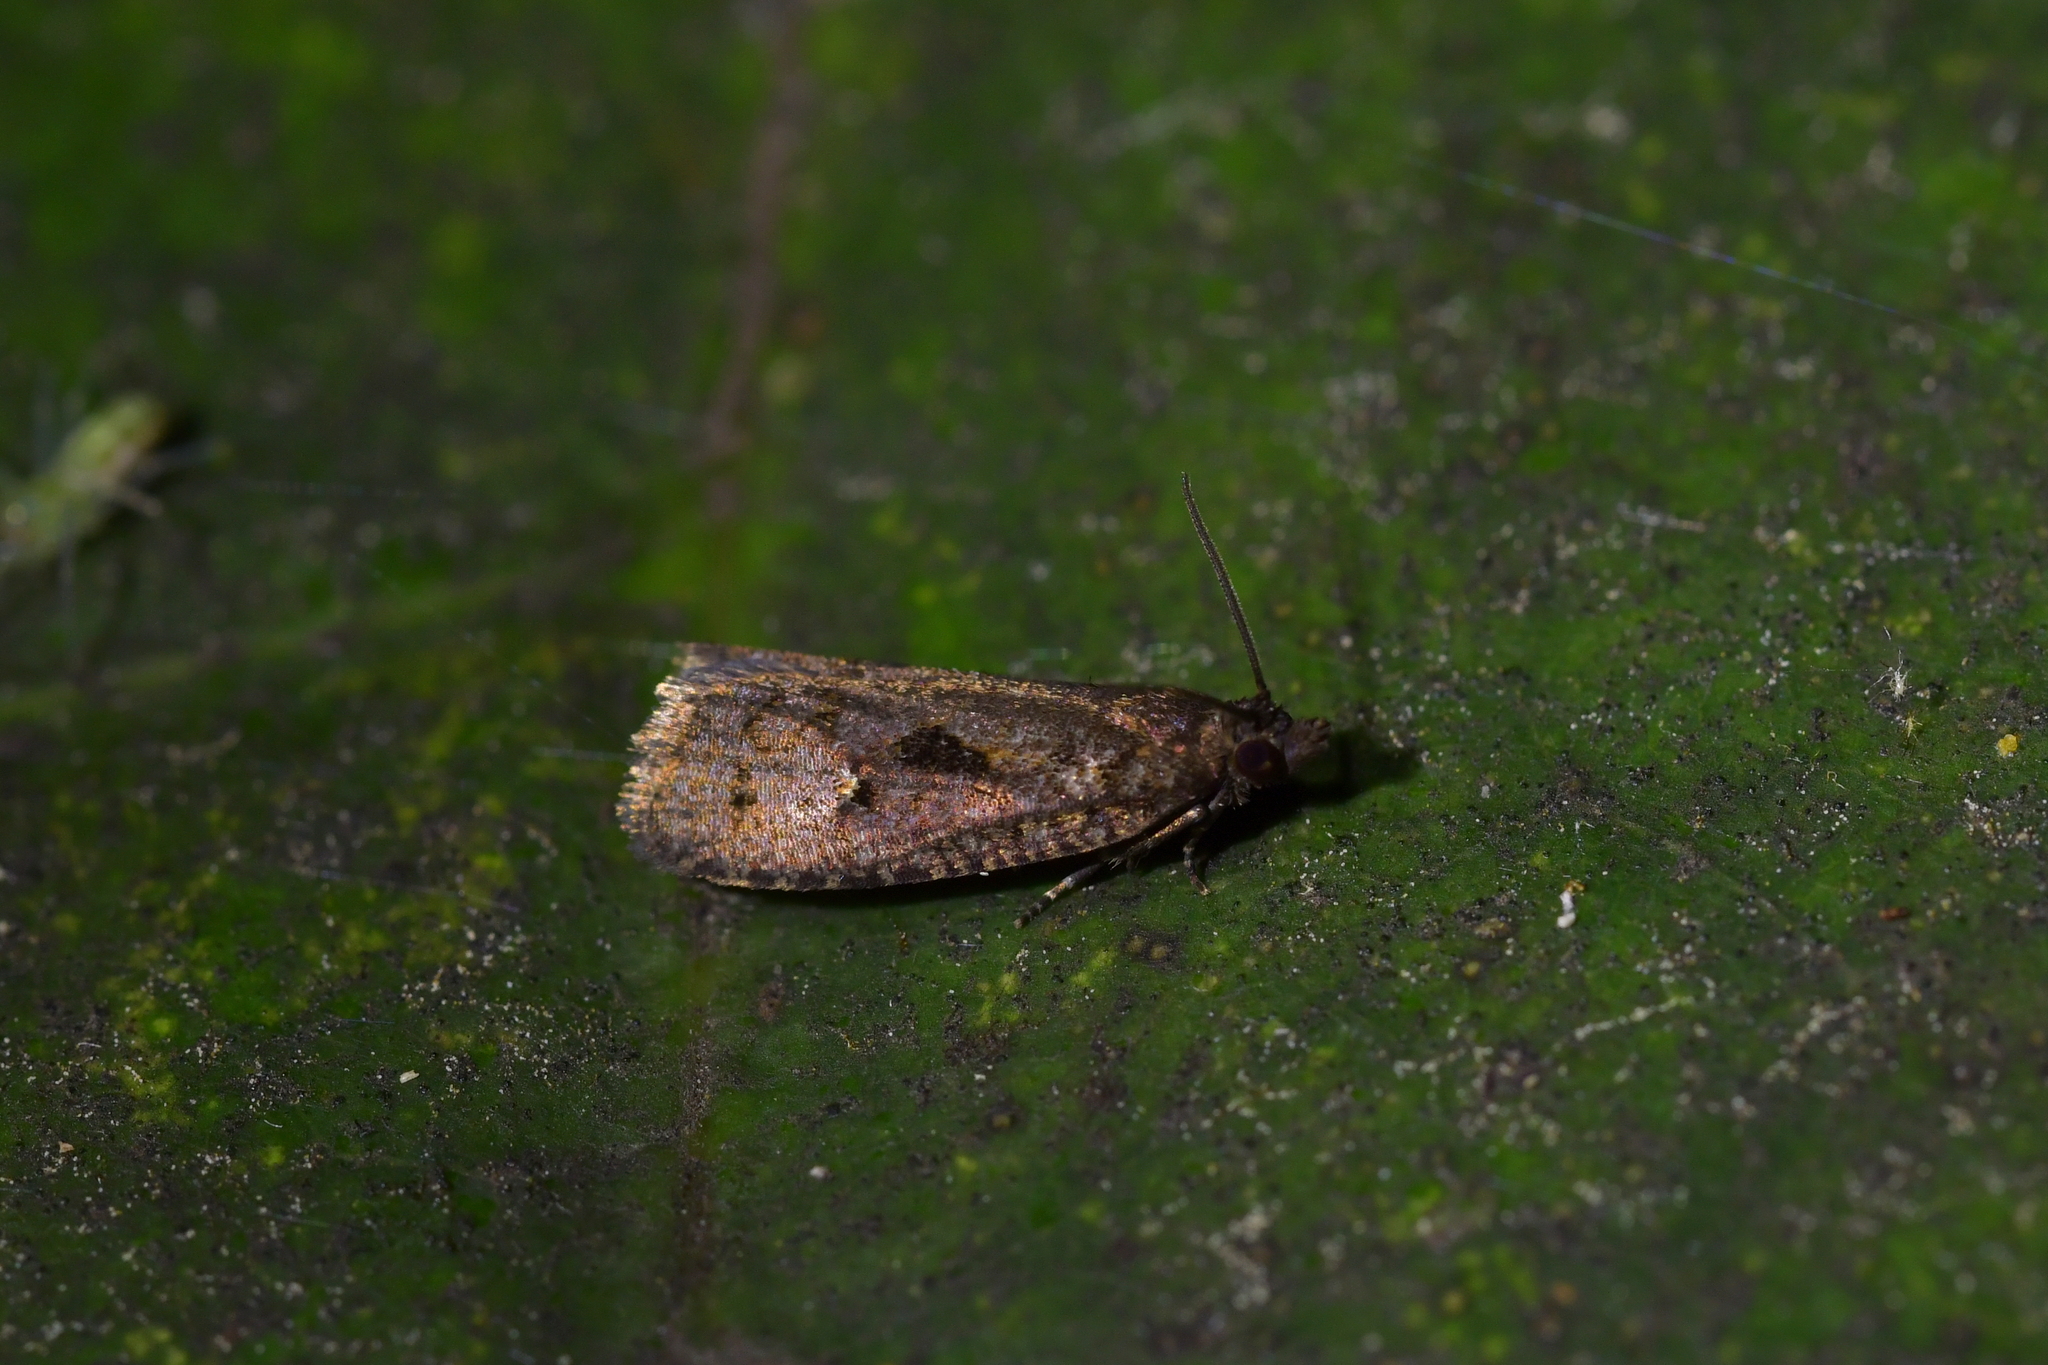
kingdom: Animalia
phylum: Arthropoda
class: Insecta
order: Lepidoptera
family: Tortricidae
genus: Cryptaspasma
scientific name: Cryptaspasma querula
